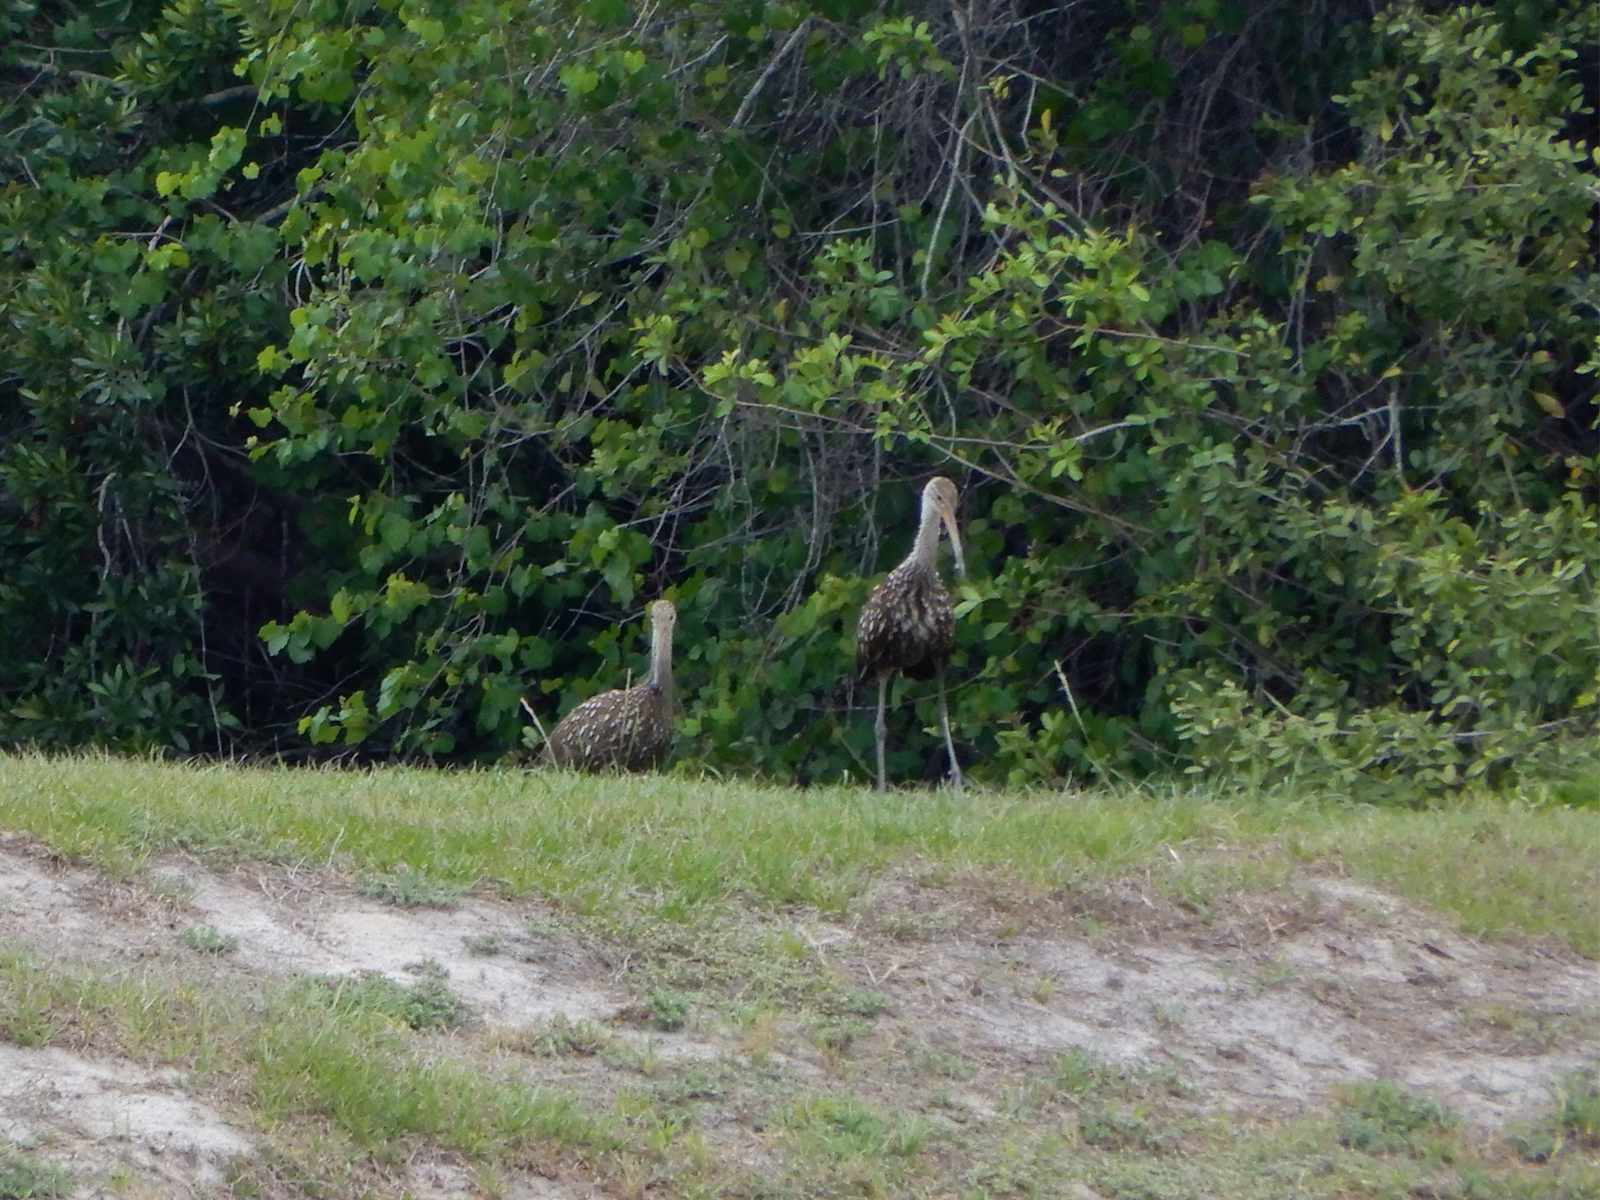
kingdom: Animalia
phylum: Chordata
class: Aves
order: Gruiformes
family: Aramidae
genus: Aramus
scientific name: Aramus guarauna
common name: Limpkin
